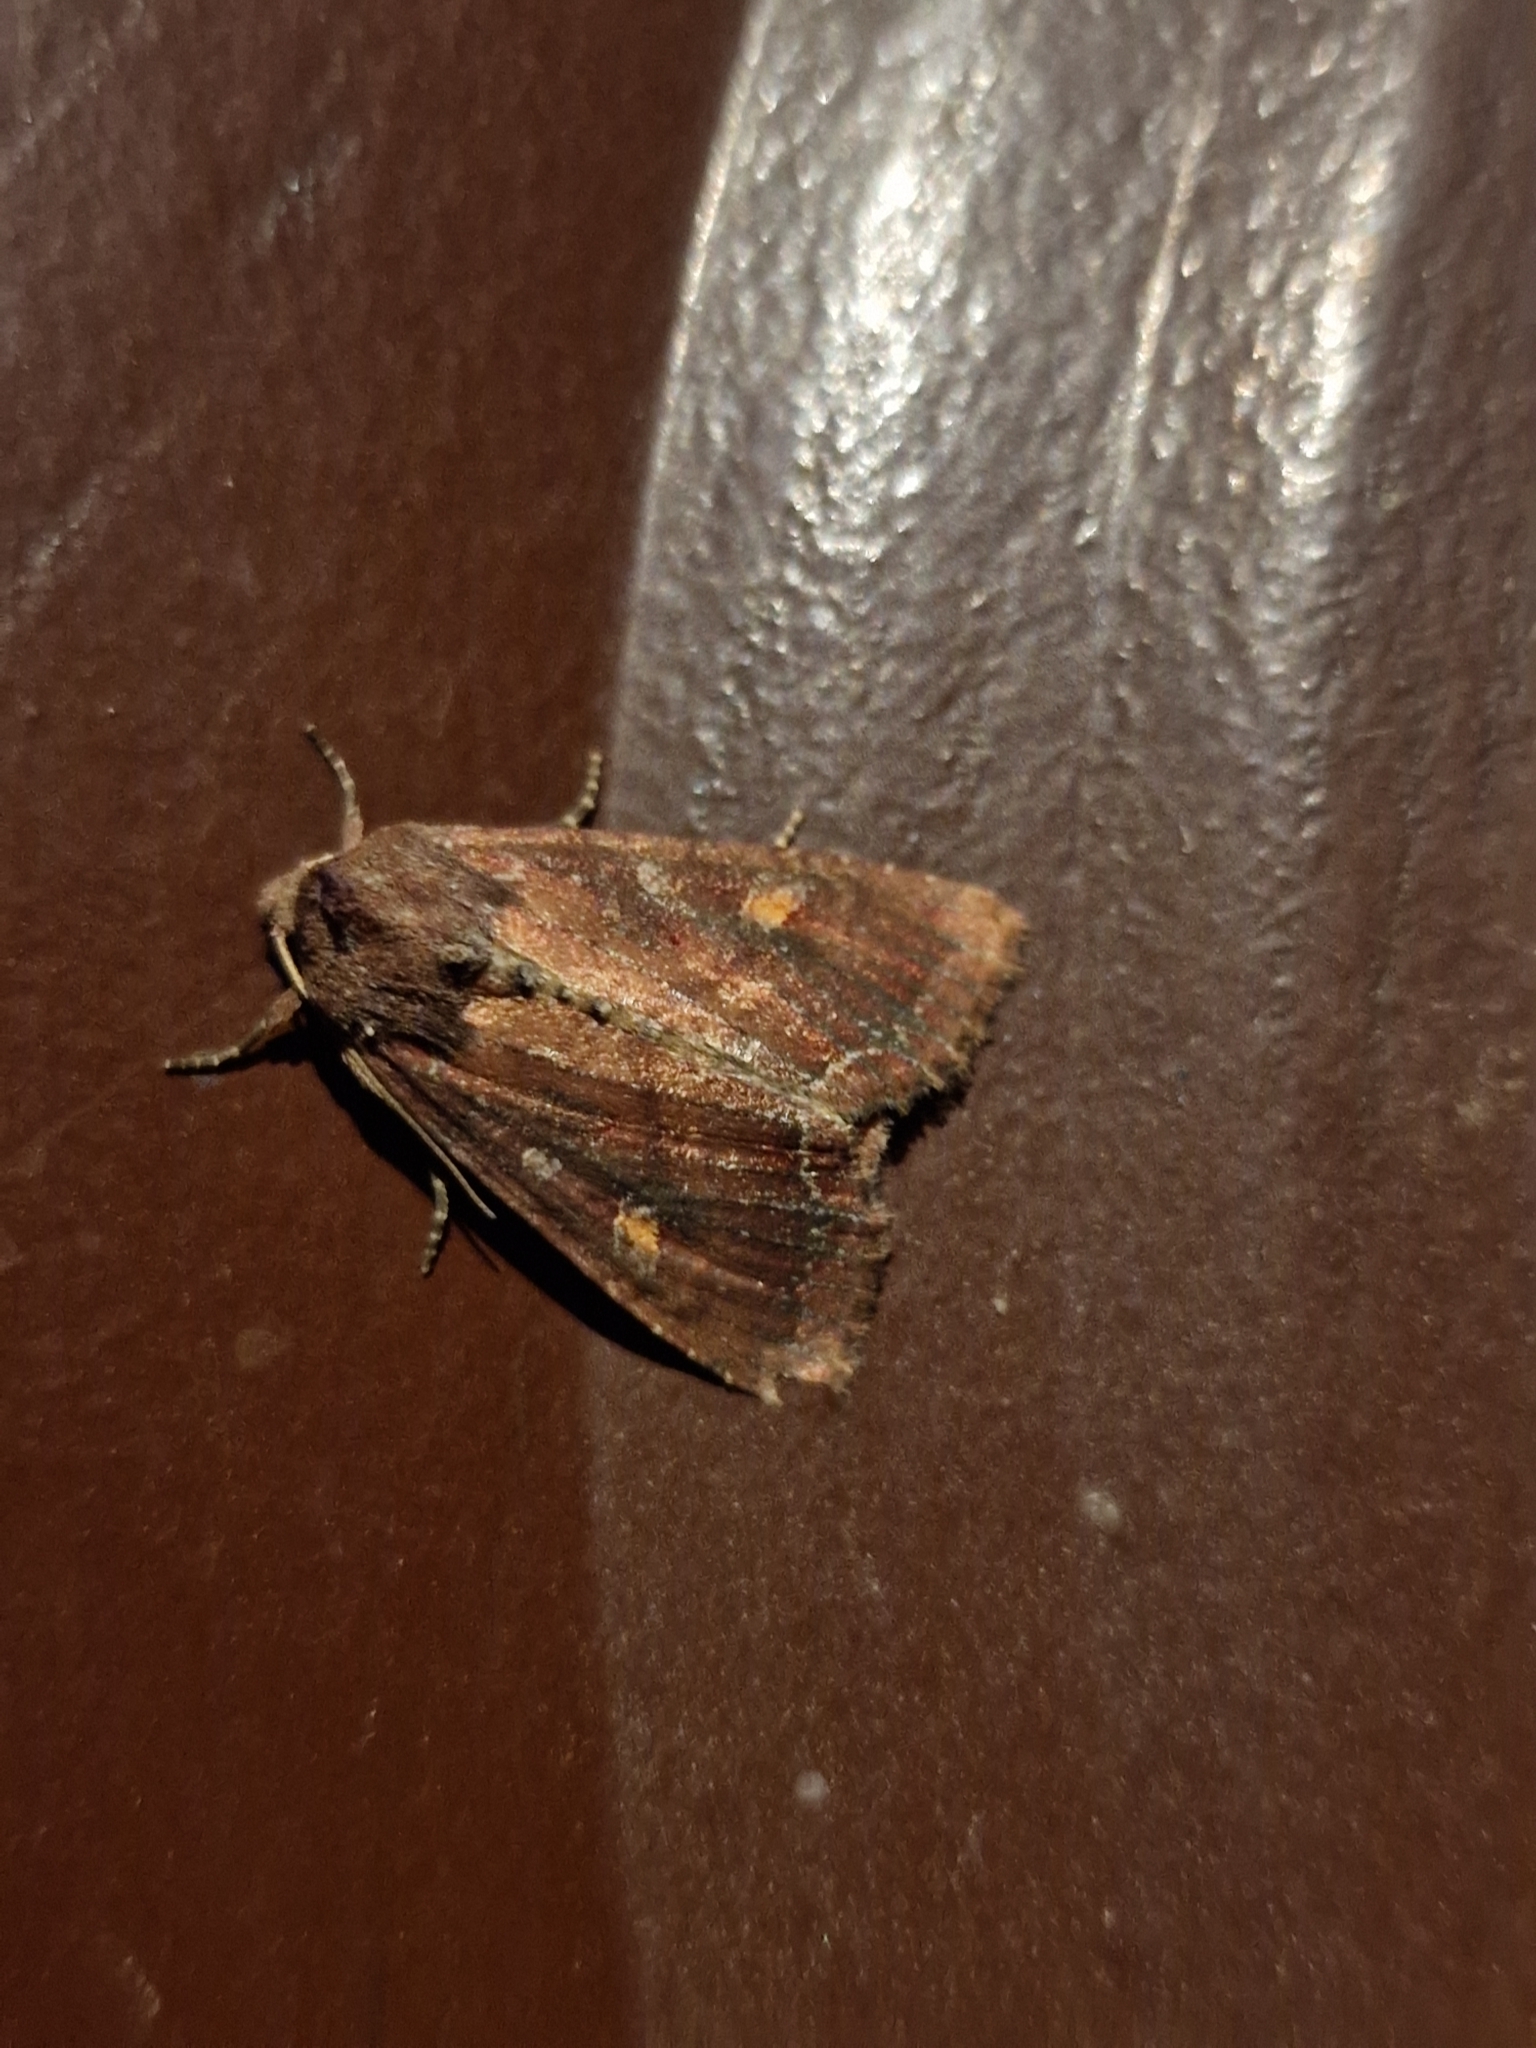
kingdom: Animalia
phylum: Arthropoda
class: Insecta
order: Lepidoptera
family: Noctuidae
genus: Lacanobia
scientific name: Lacanobia oleracea
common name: Bright-line brown-eye
